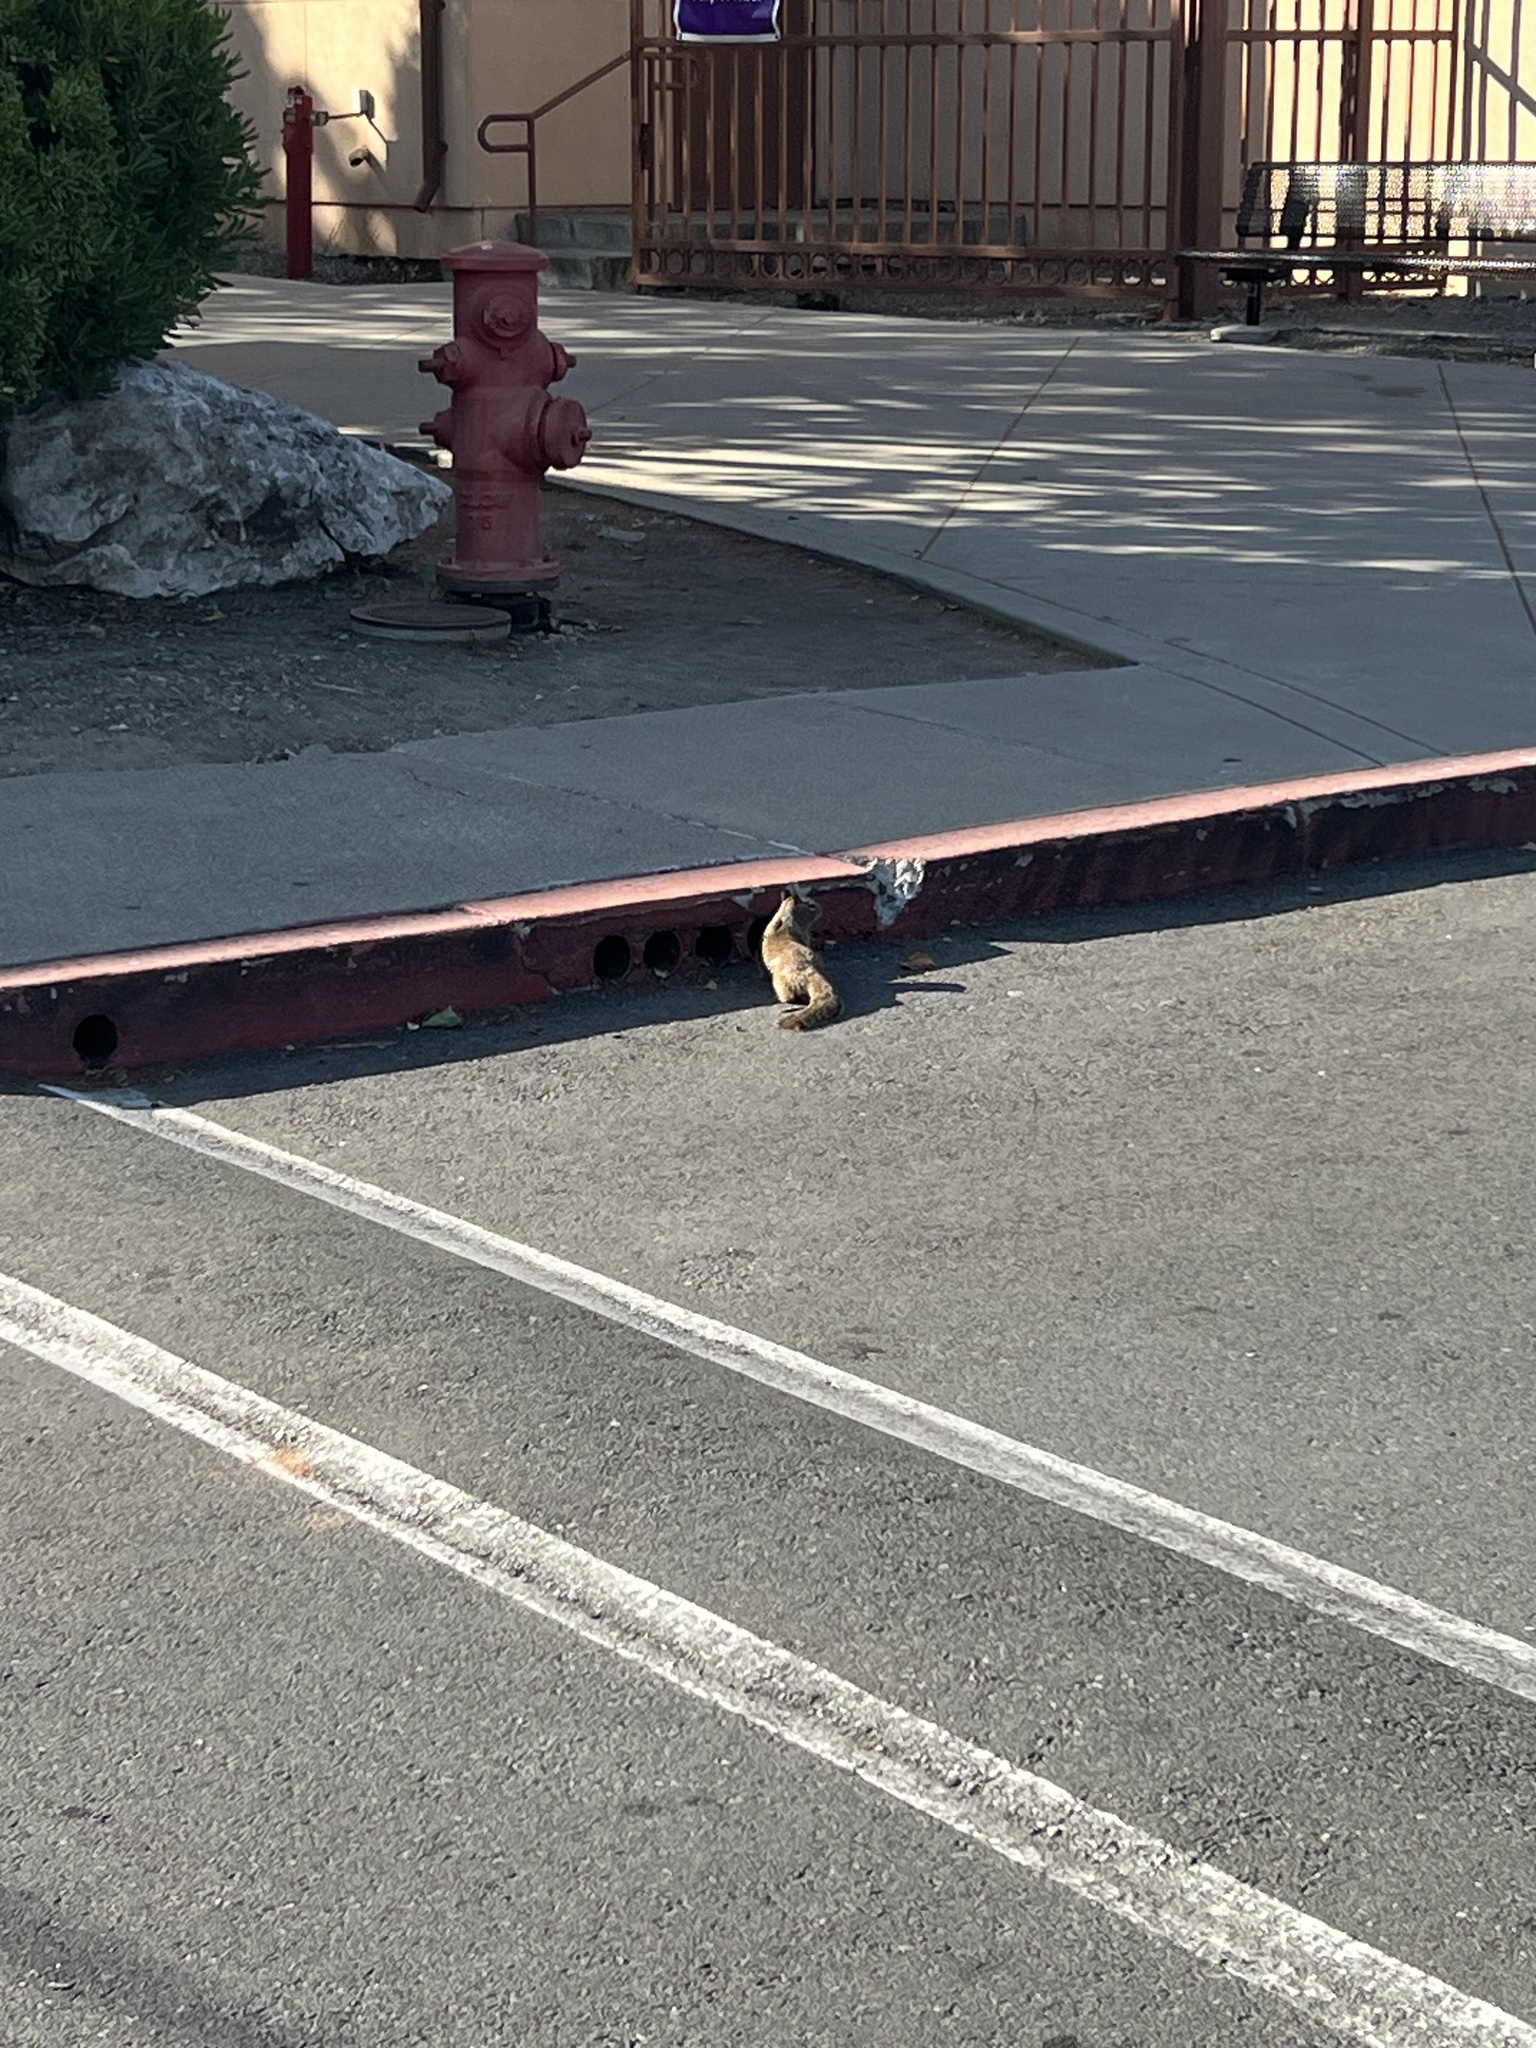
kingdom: Animalia
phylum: Chordata
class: Mammalia
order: Rodentia
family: Sciuridae
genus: Otospermophilus
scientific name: Otospermophilus beecheyi
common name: California ground squirrel
